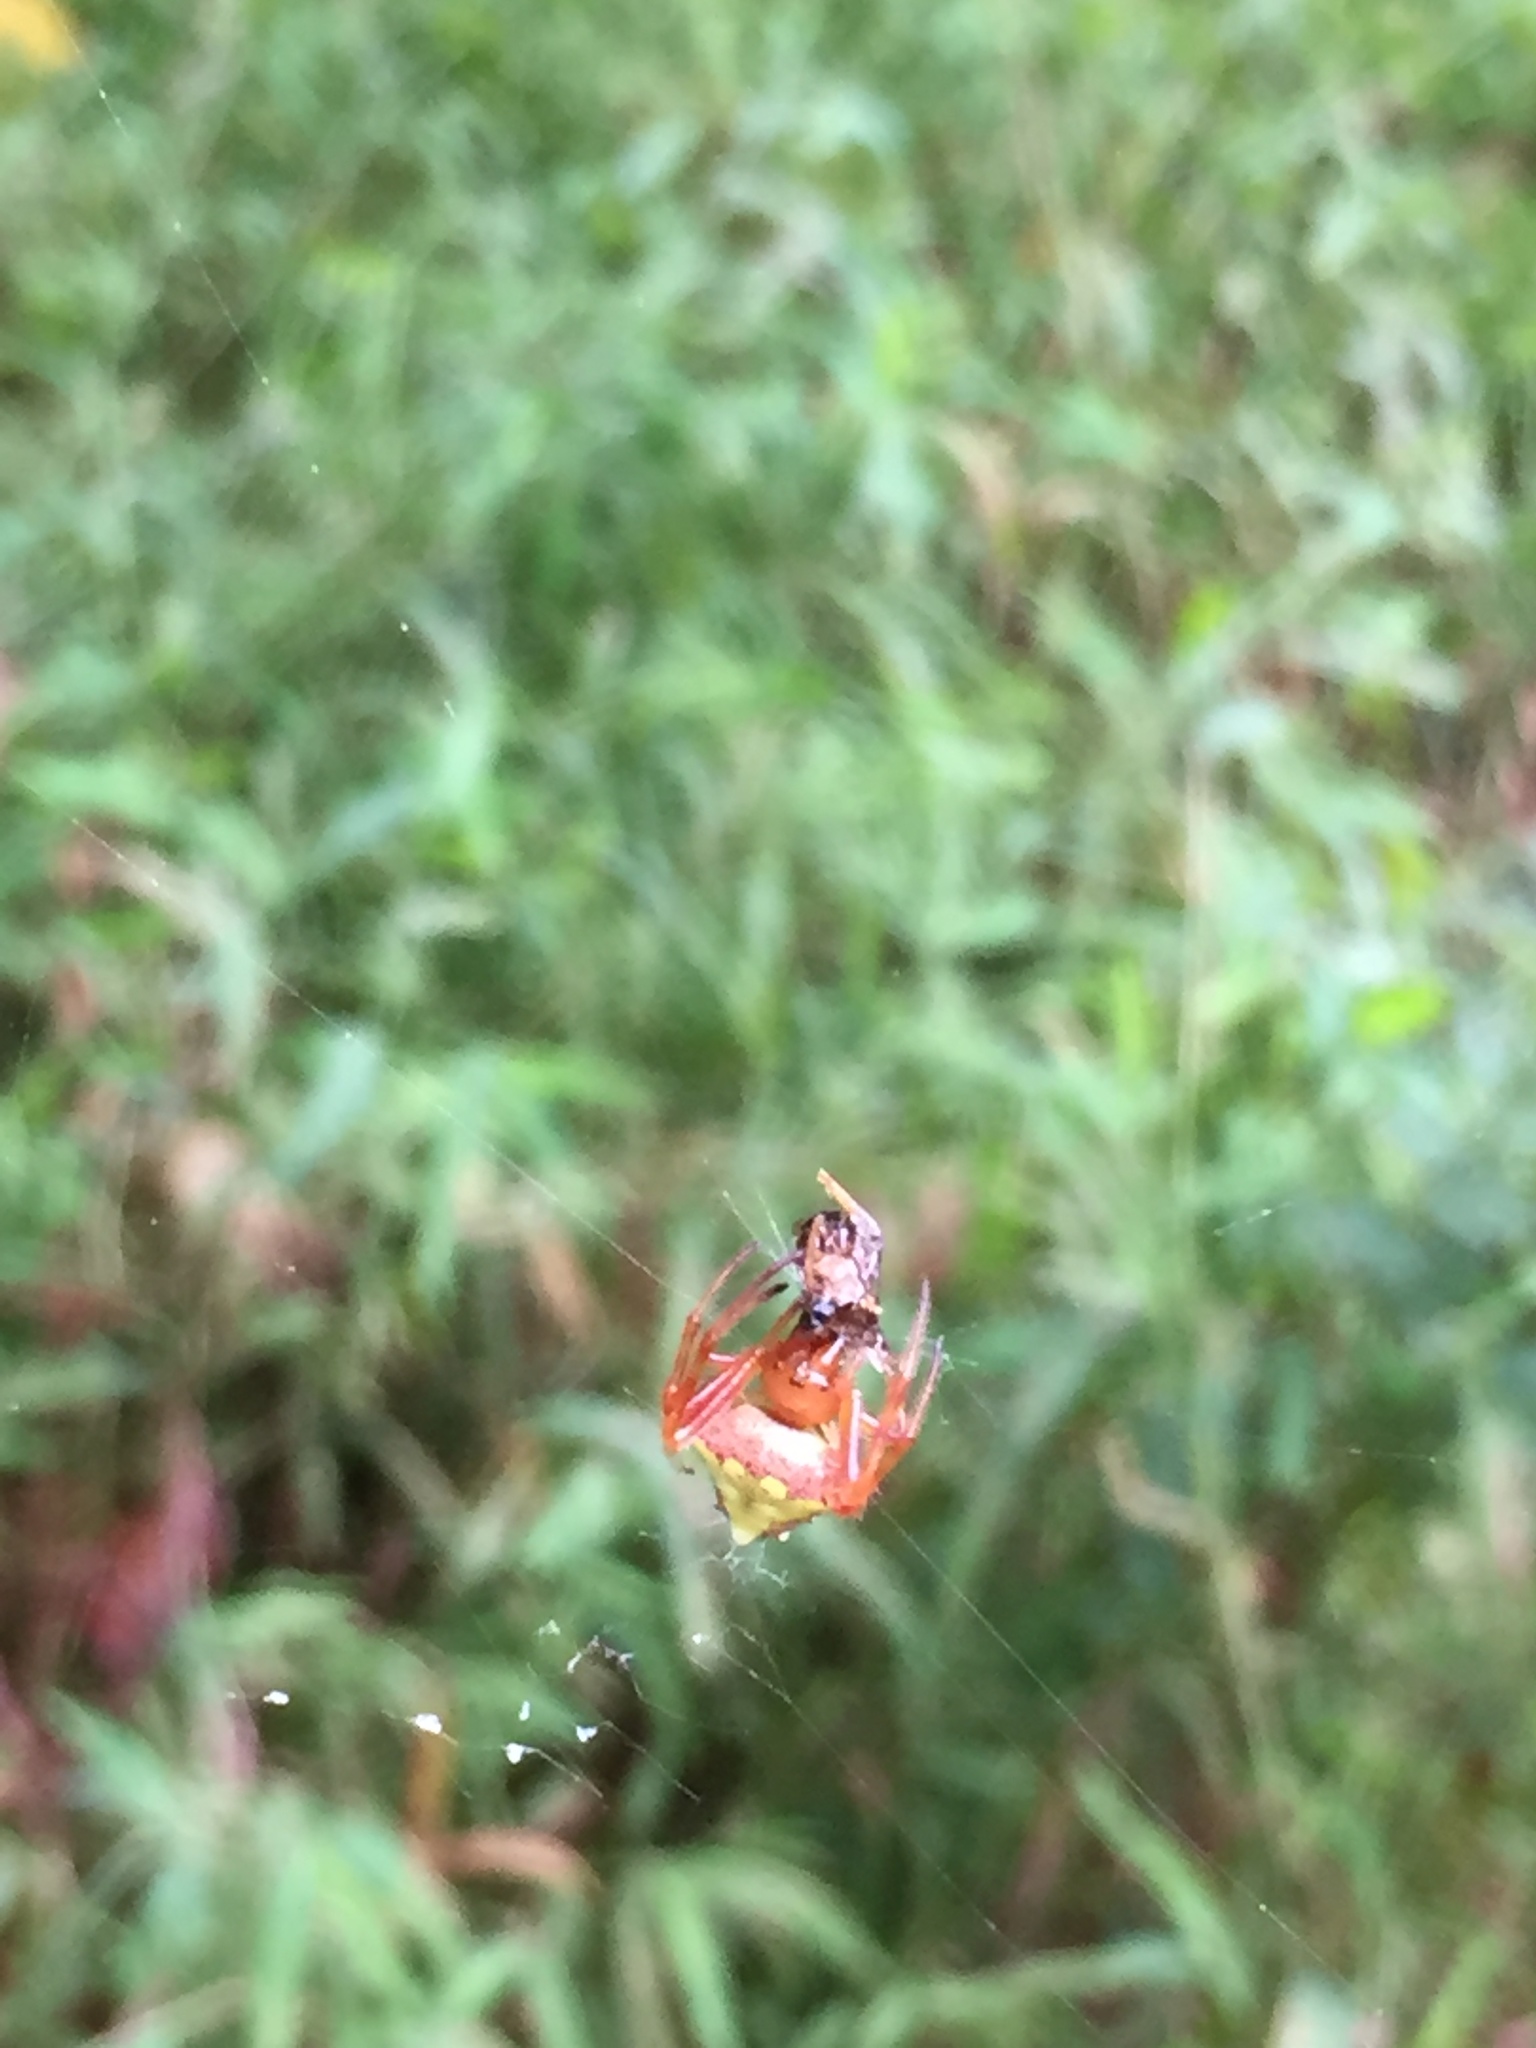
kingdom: Animalia
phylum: Arthropoda
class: Arachnida
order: Araneae
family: Araneidae
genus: Verrucosa
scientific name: Verrucosa arenata
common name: Orb weavers
